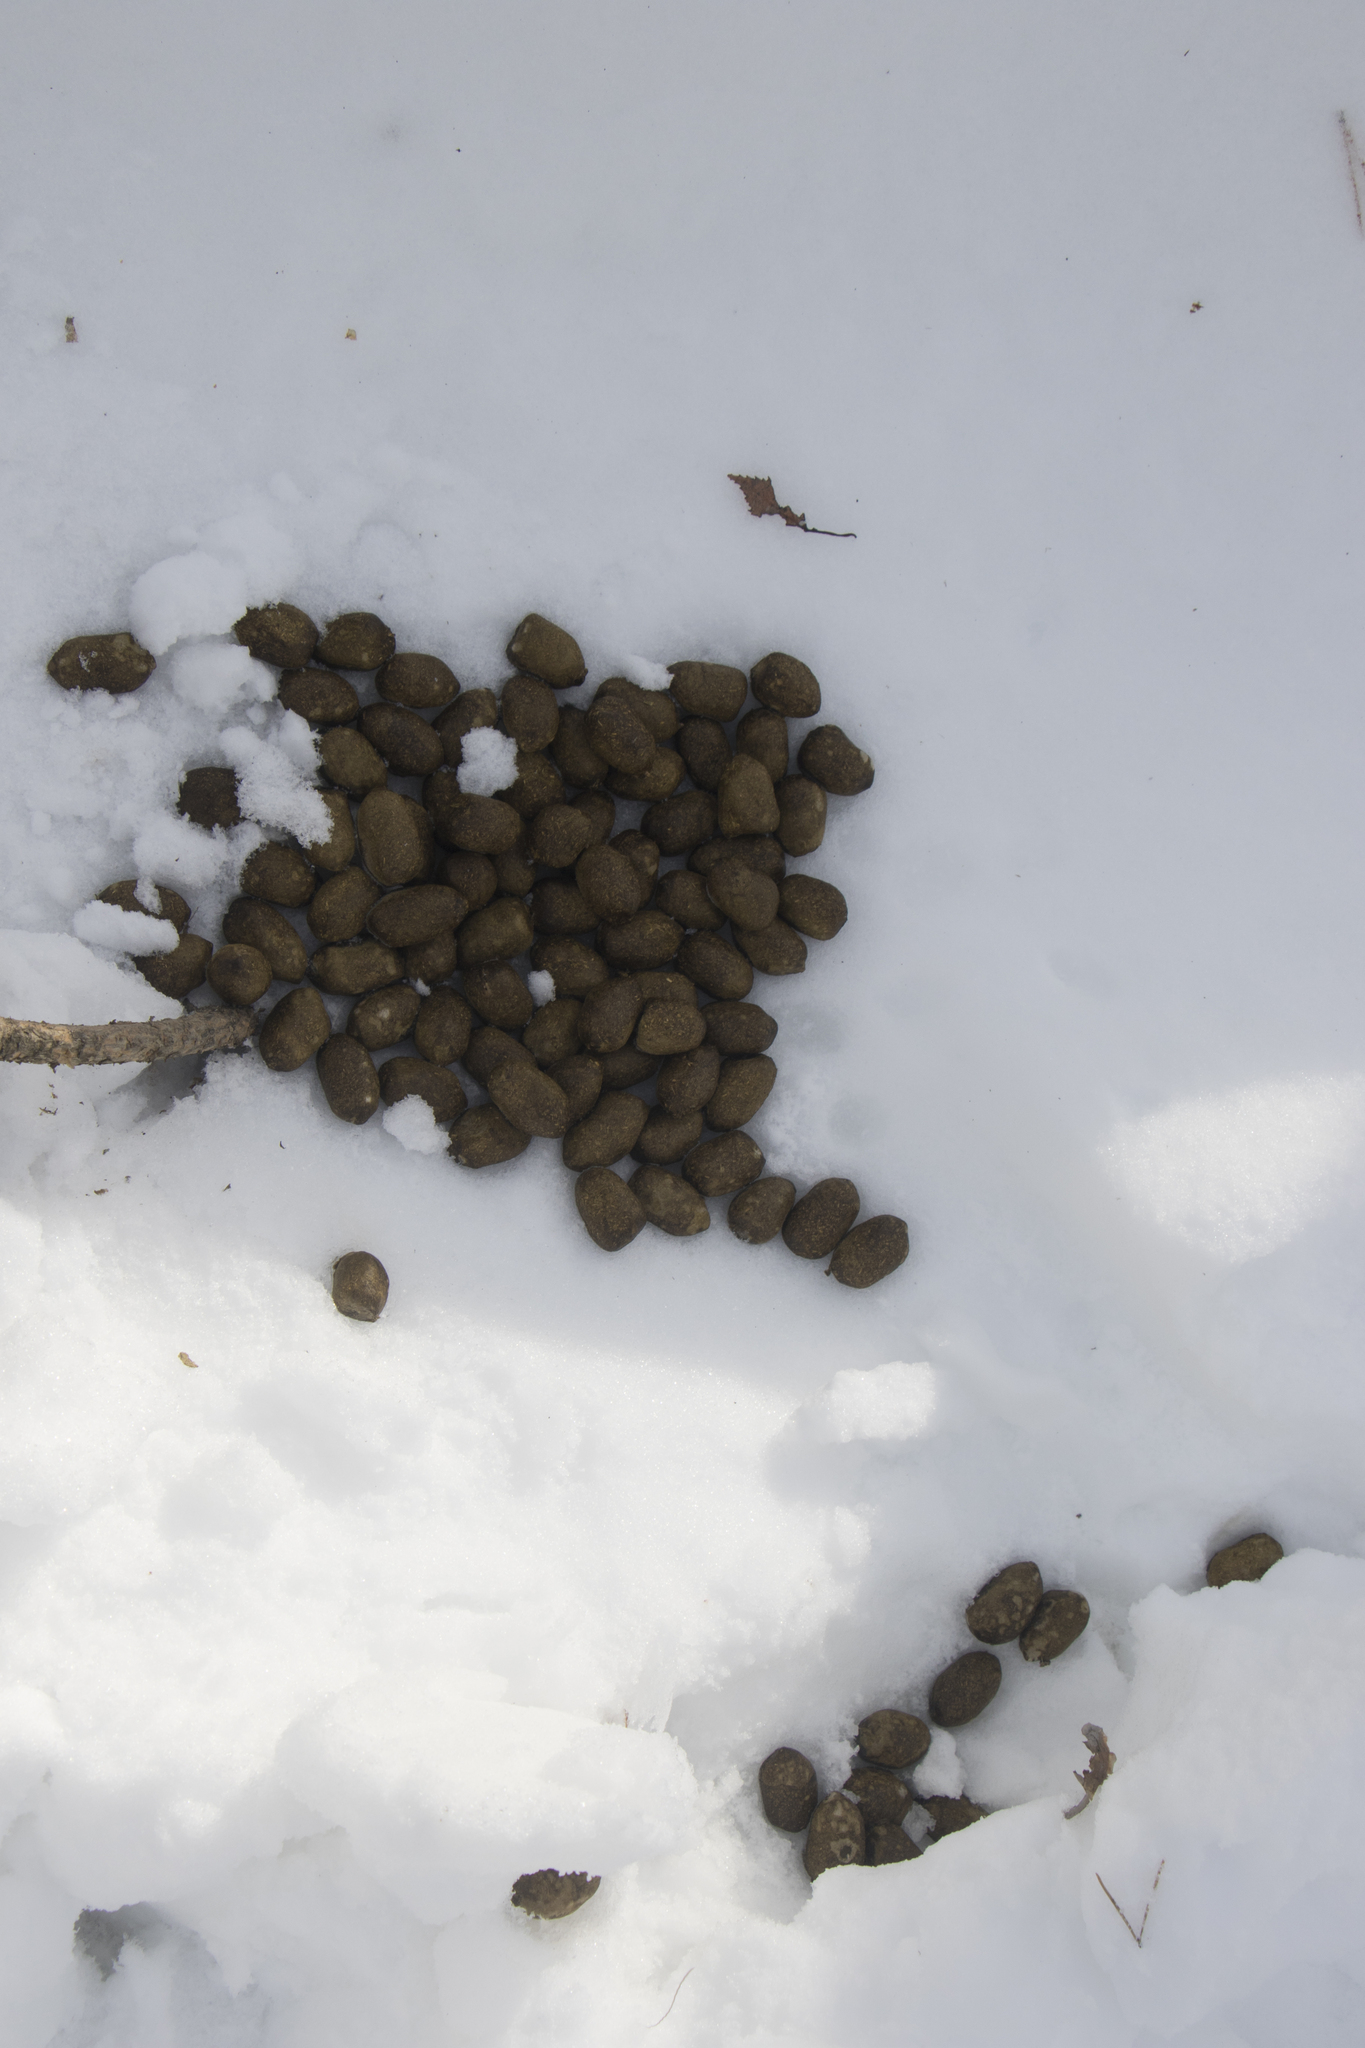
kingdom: Animalia
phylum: Chordata
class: Mammalia
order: Artiodactyla
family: Cervidae
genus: Alces
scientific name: Alces alces
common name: Moose
